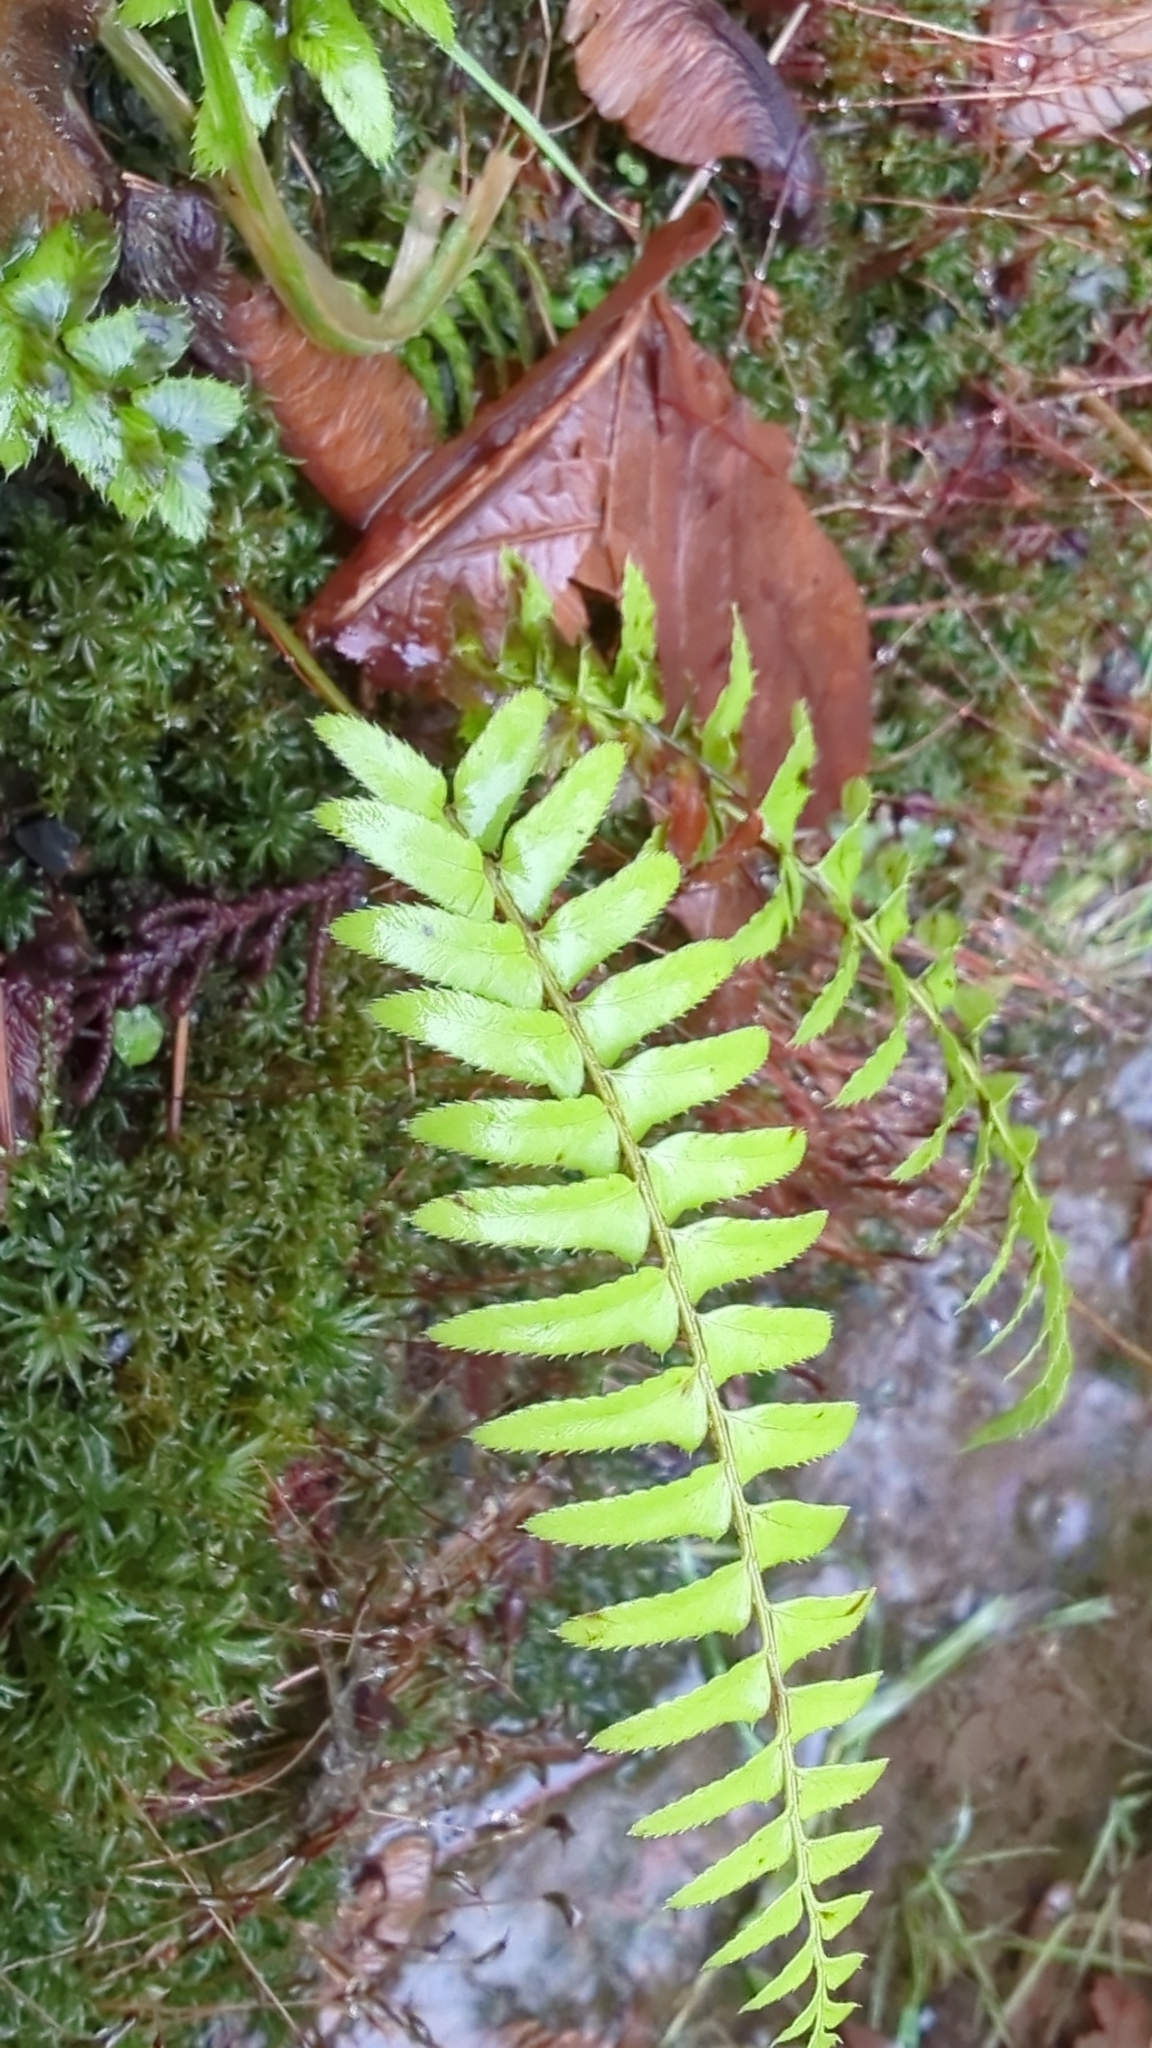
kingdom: Plantae
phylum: Tracheophyta
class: Polypodiopsida
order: Polypodiales
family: Dryopteridaceae
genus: Polystichum
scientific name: Polystichum munitum
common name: Western sword-fern
